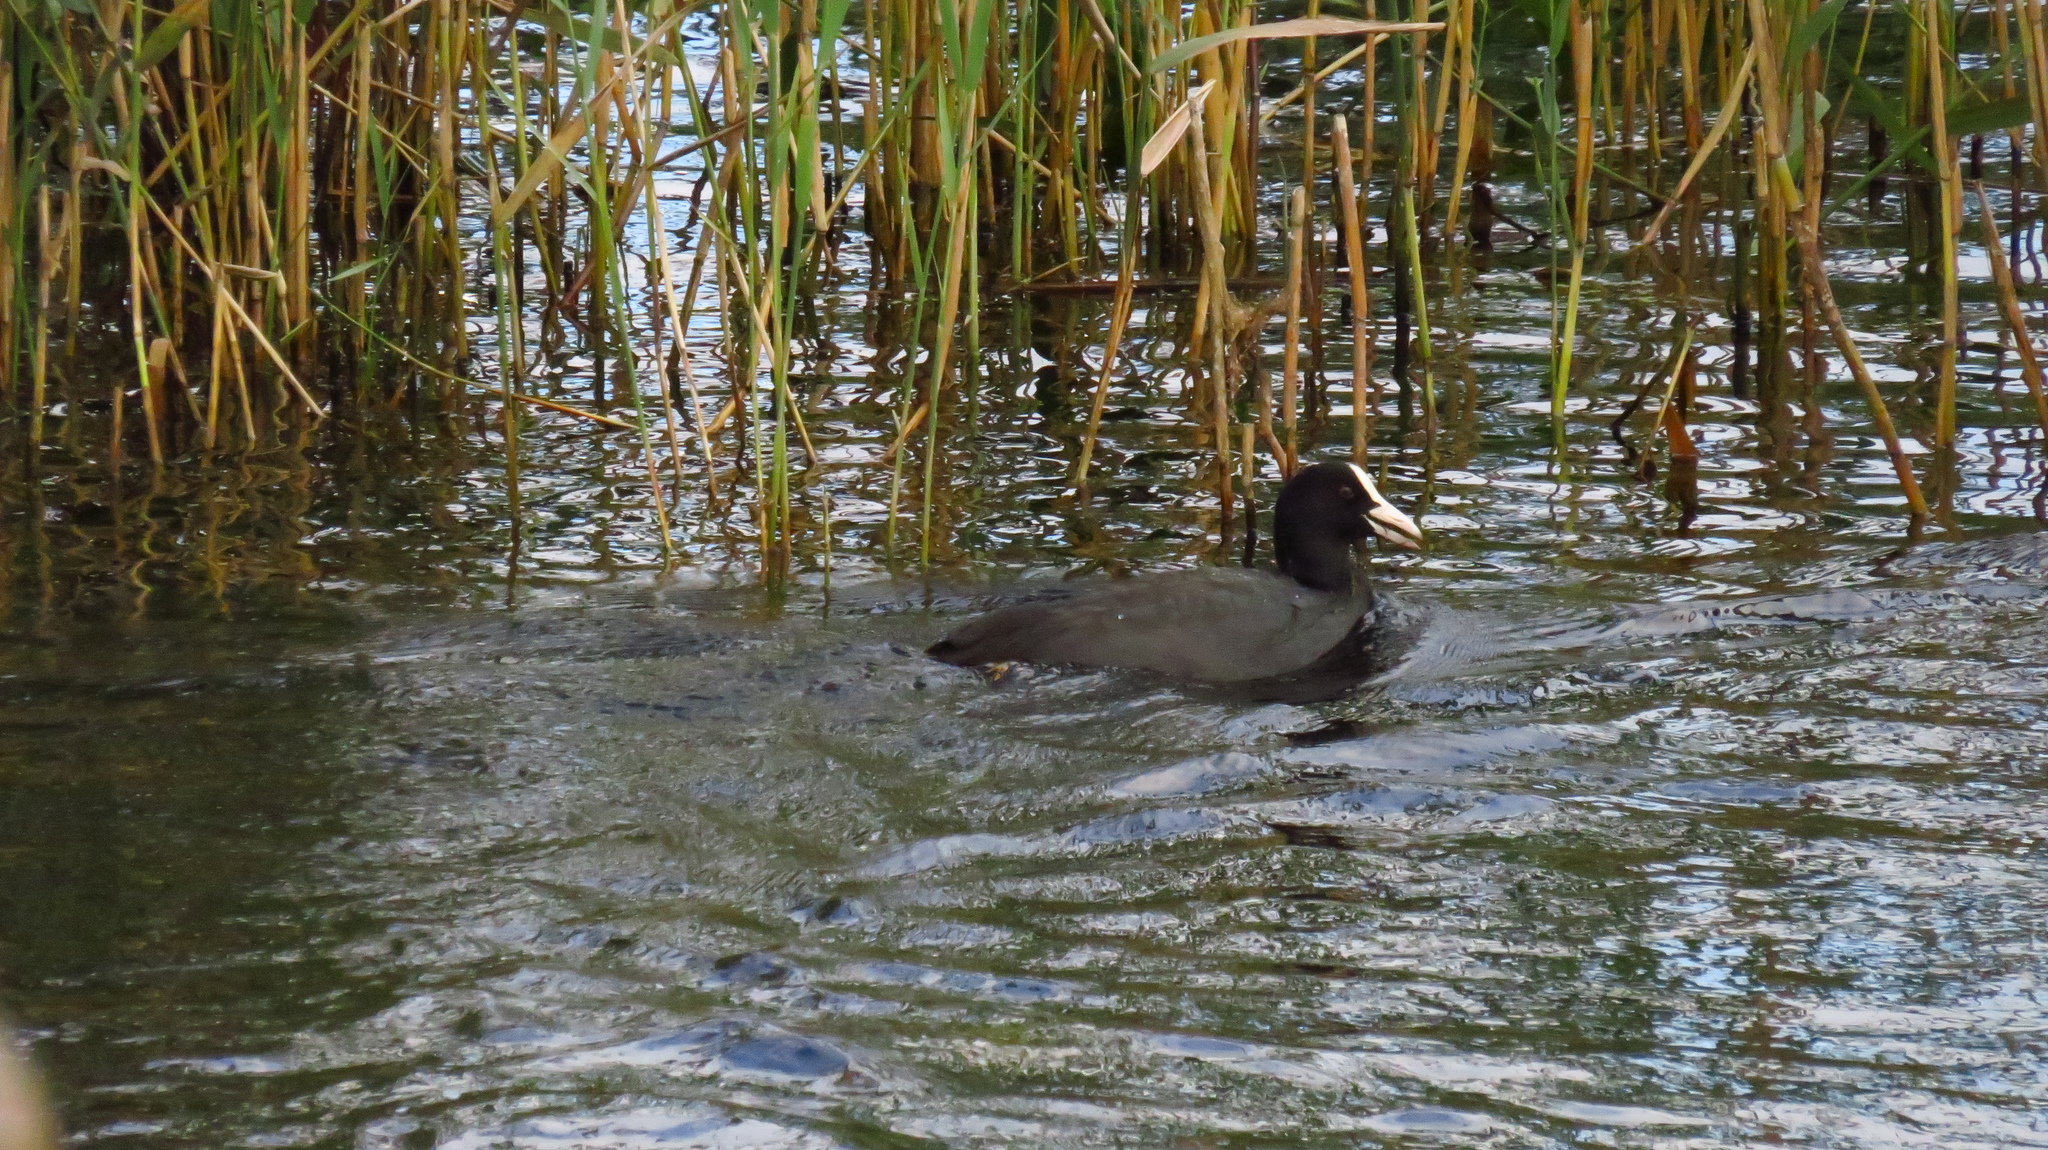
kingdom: Animalia
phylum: Chordata
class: Aves
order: Gruiformes
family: Rallidae
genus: Fulica
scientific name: Fulica atra
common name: Eurasian coot
